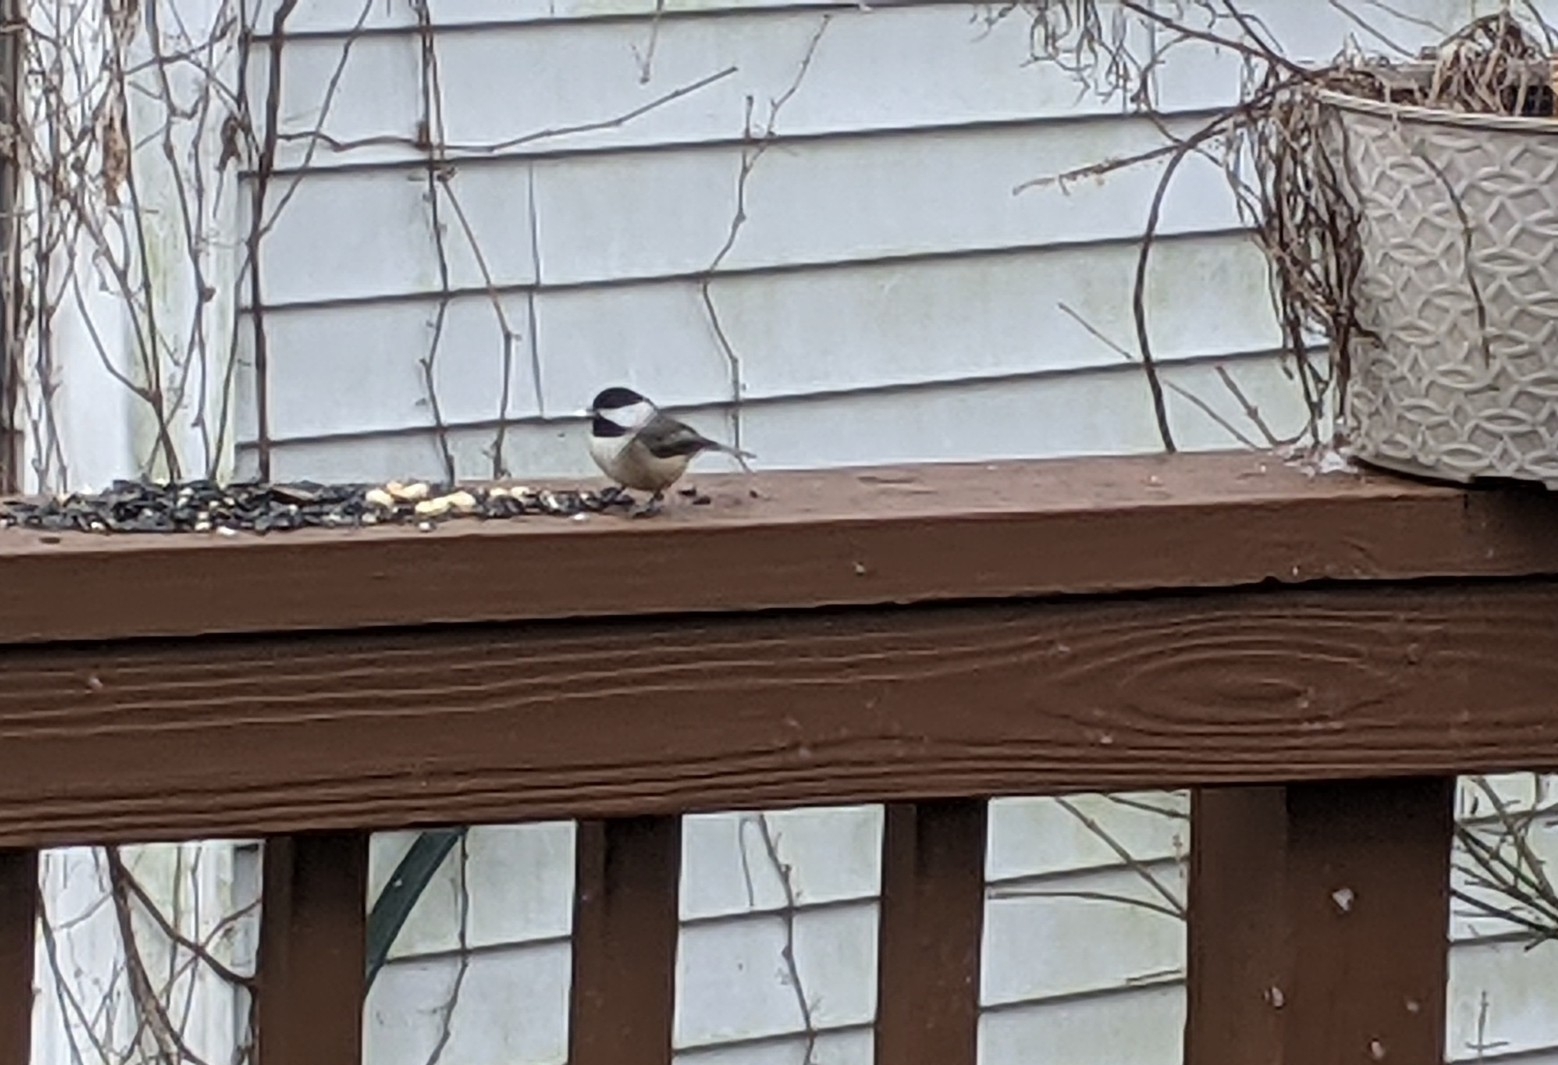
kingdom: Animalia
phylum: Chordata
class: Aves
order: Passeriformes
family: Paridae
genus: Poecile
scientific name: Poecile carolinensis
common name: Carolina chickadee
